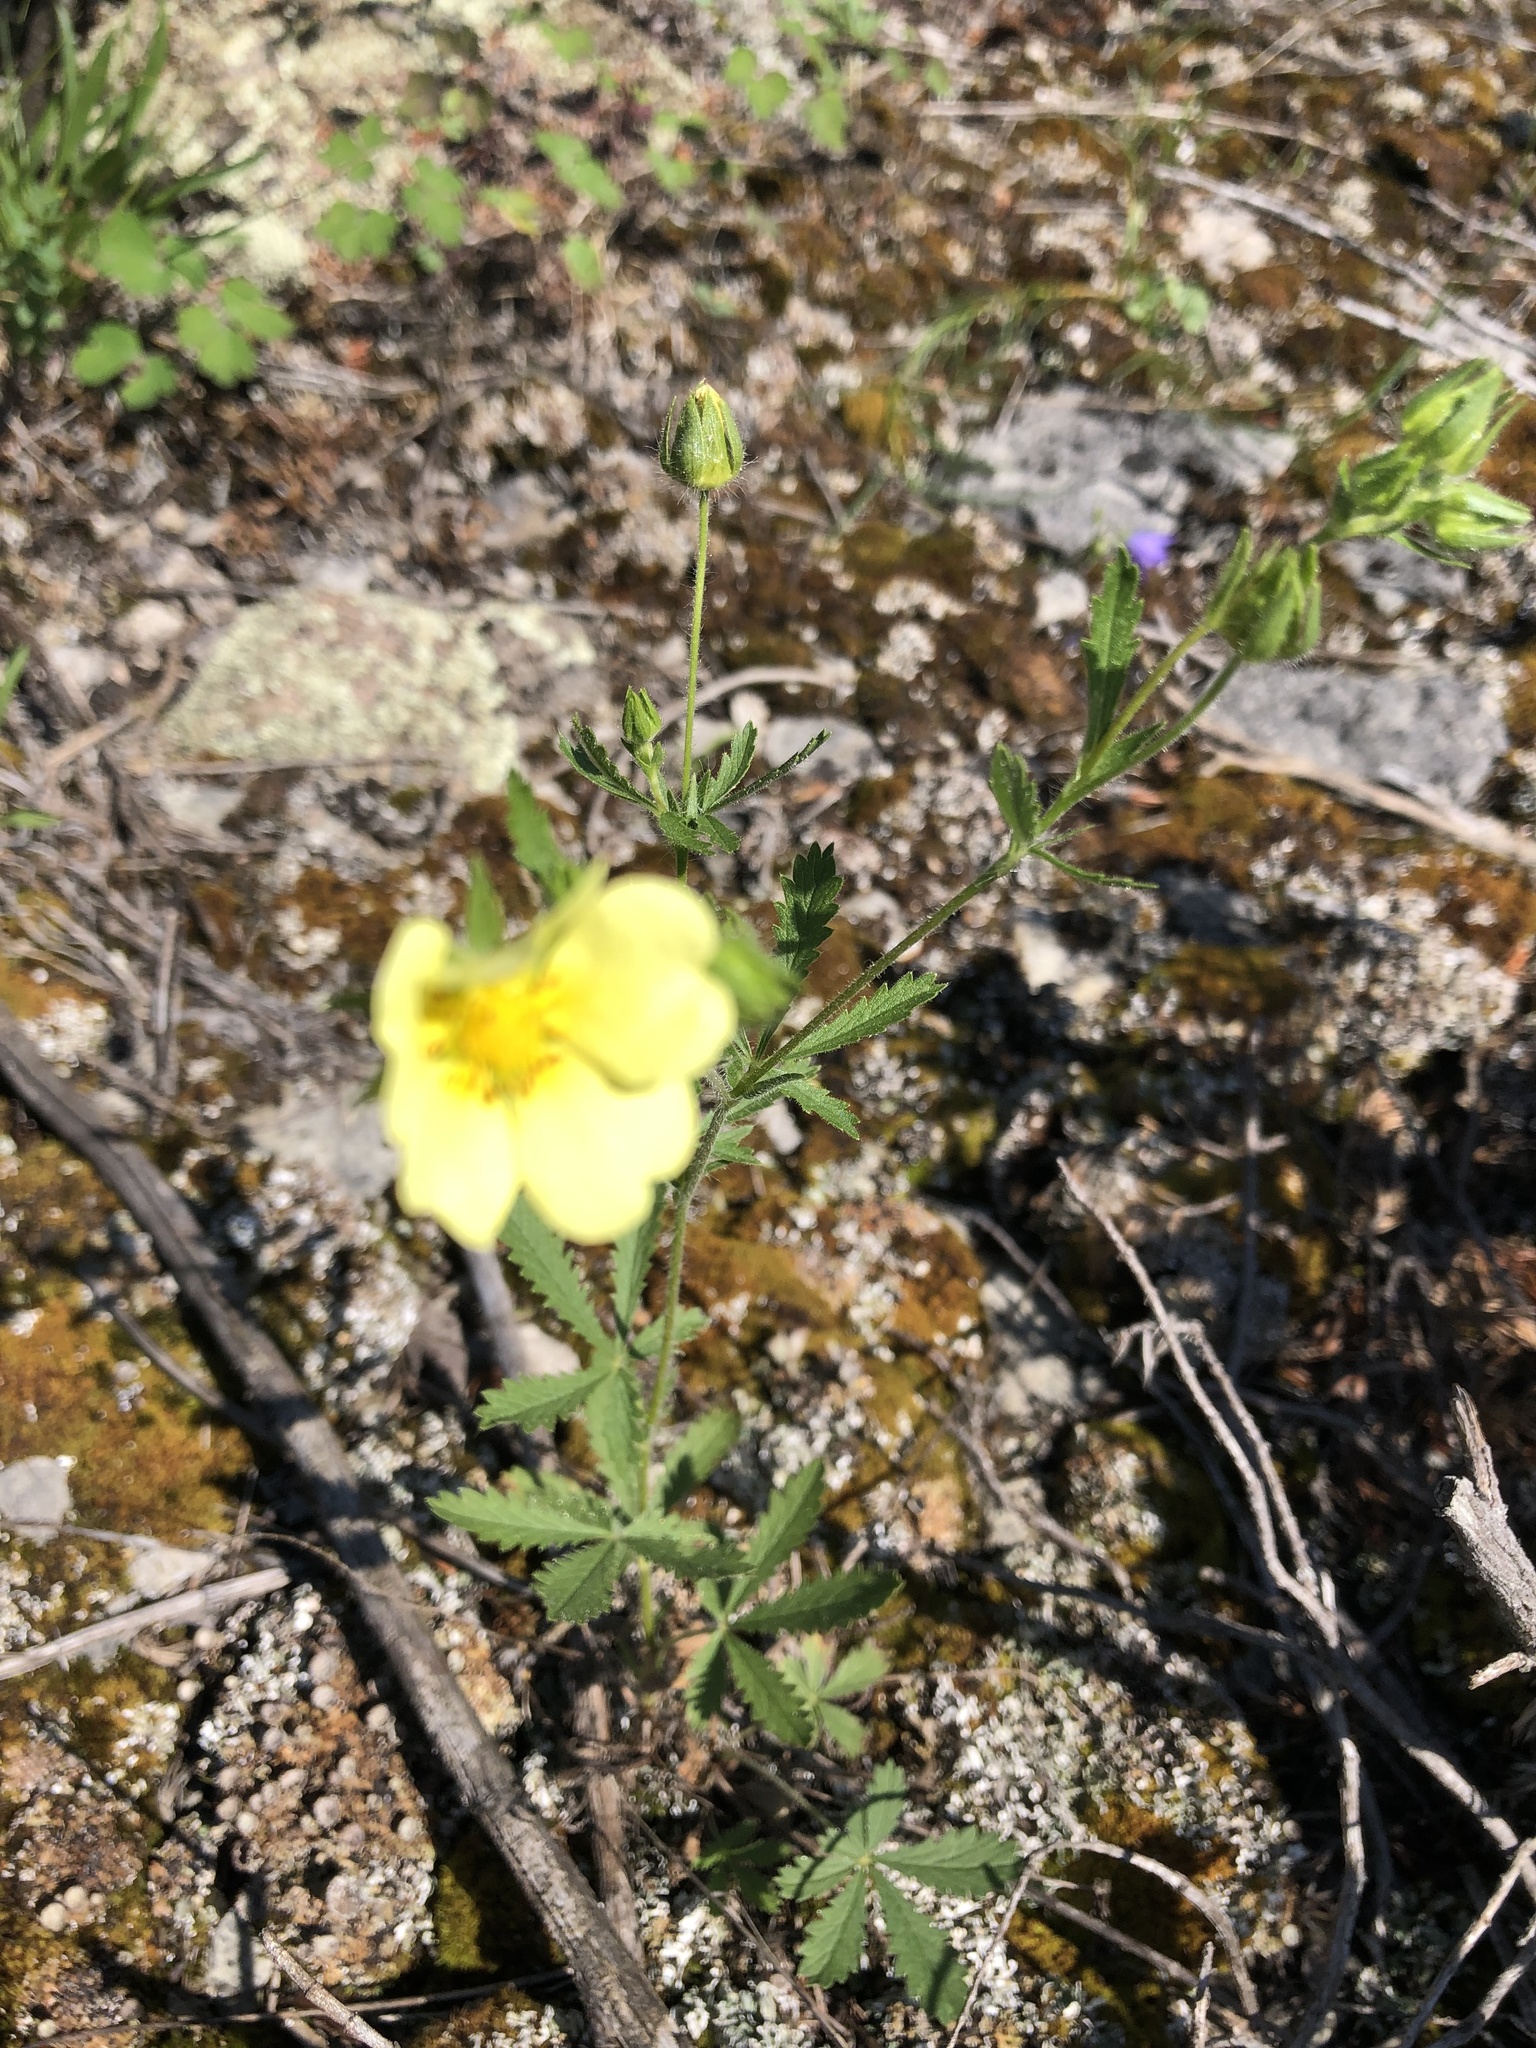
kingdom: Plantae
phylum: Tracheophyta
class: Magnoliopsida
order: Rosales
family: Rosaceae
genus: Potentilla
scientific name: Potentilla recta
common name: Sulphur cinquefoil
